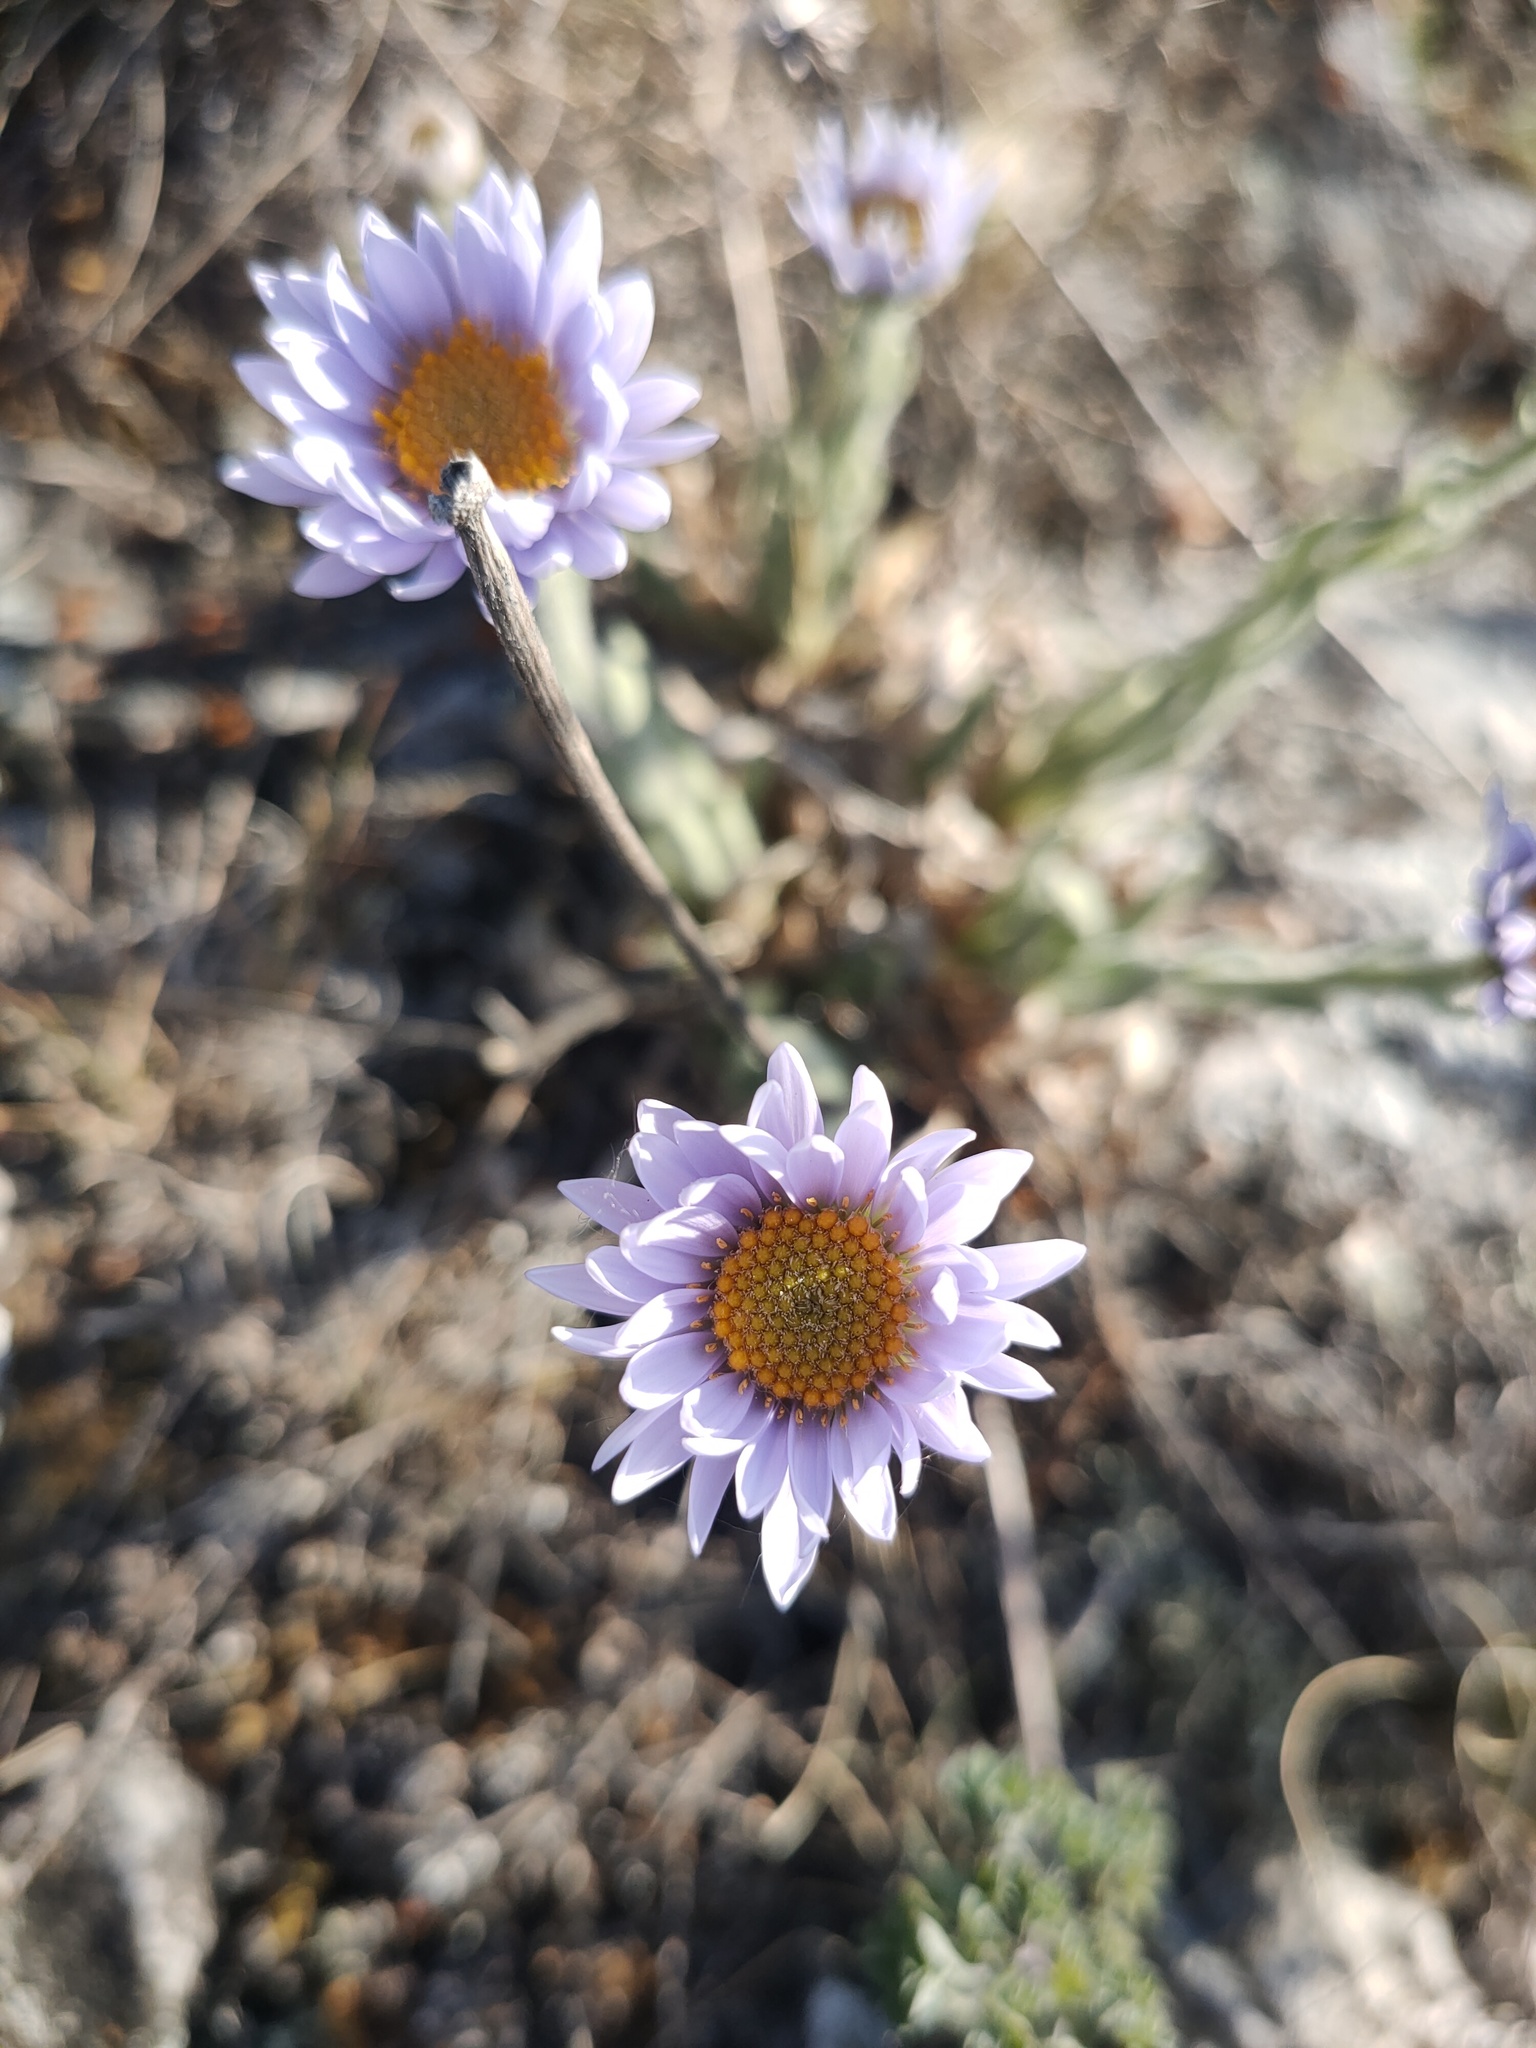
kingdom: Plantae
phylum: Tracheophyta
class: Magnoliopsida
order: Asterales
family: Asteraceae
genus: Aster
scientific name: Aster alpinus
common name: Alpine aster
